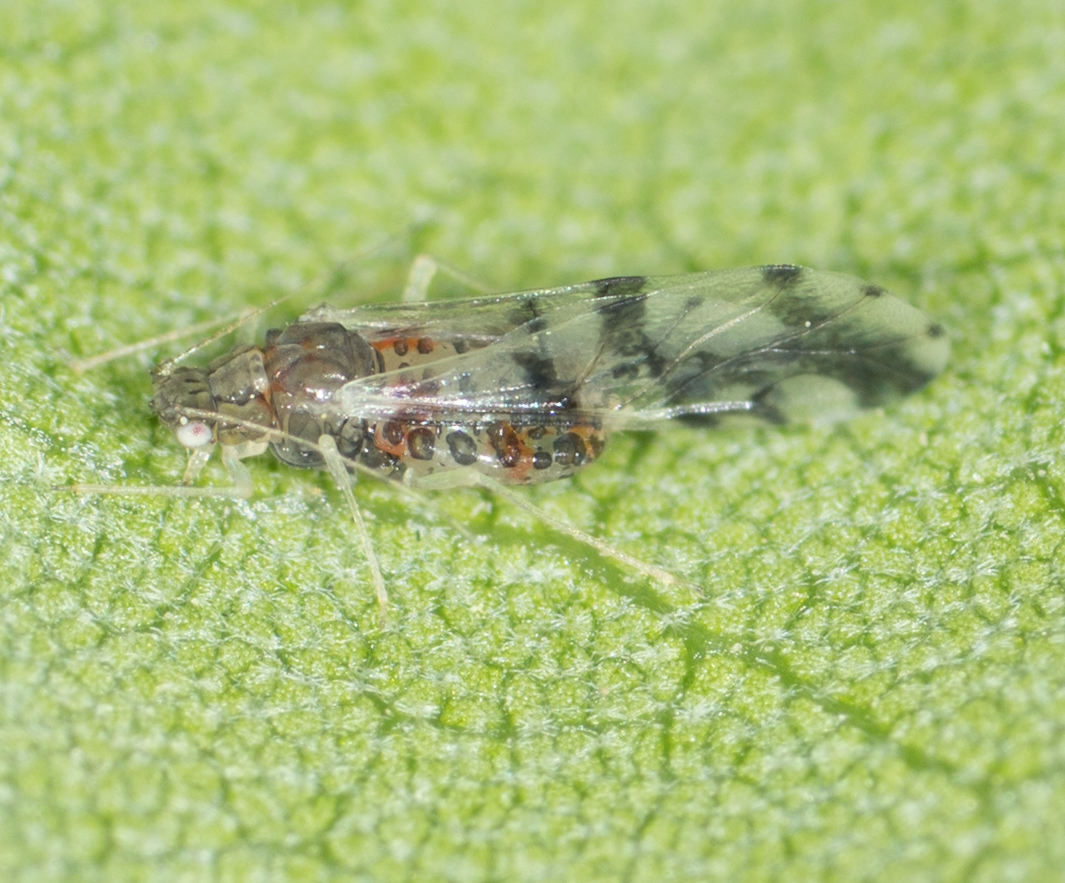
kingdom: Animalia
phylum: Arthropoda
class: Insecta
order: Hemiptera
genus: Neomyzocallis
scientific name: Neomyzocallis
